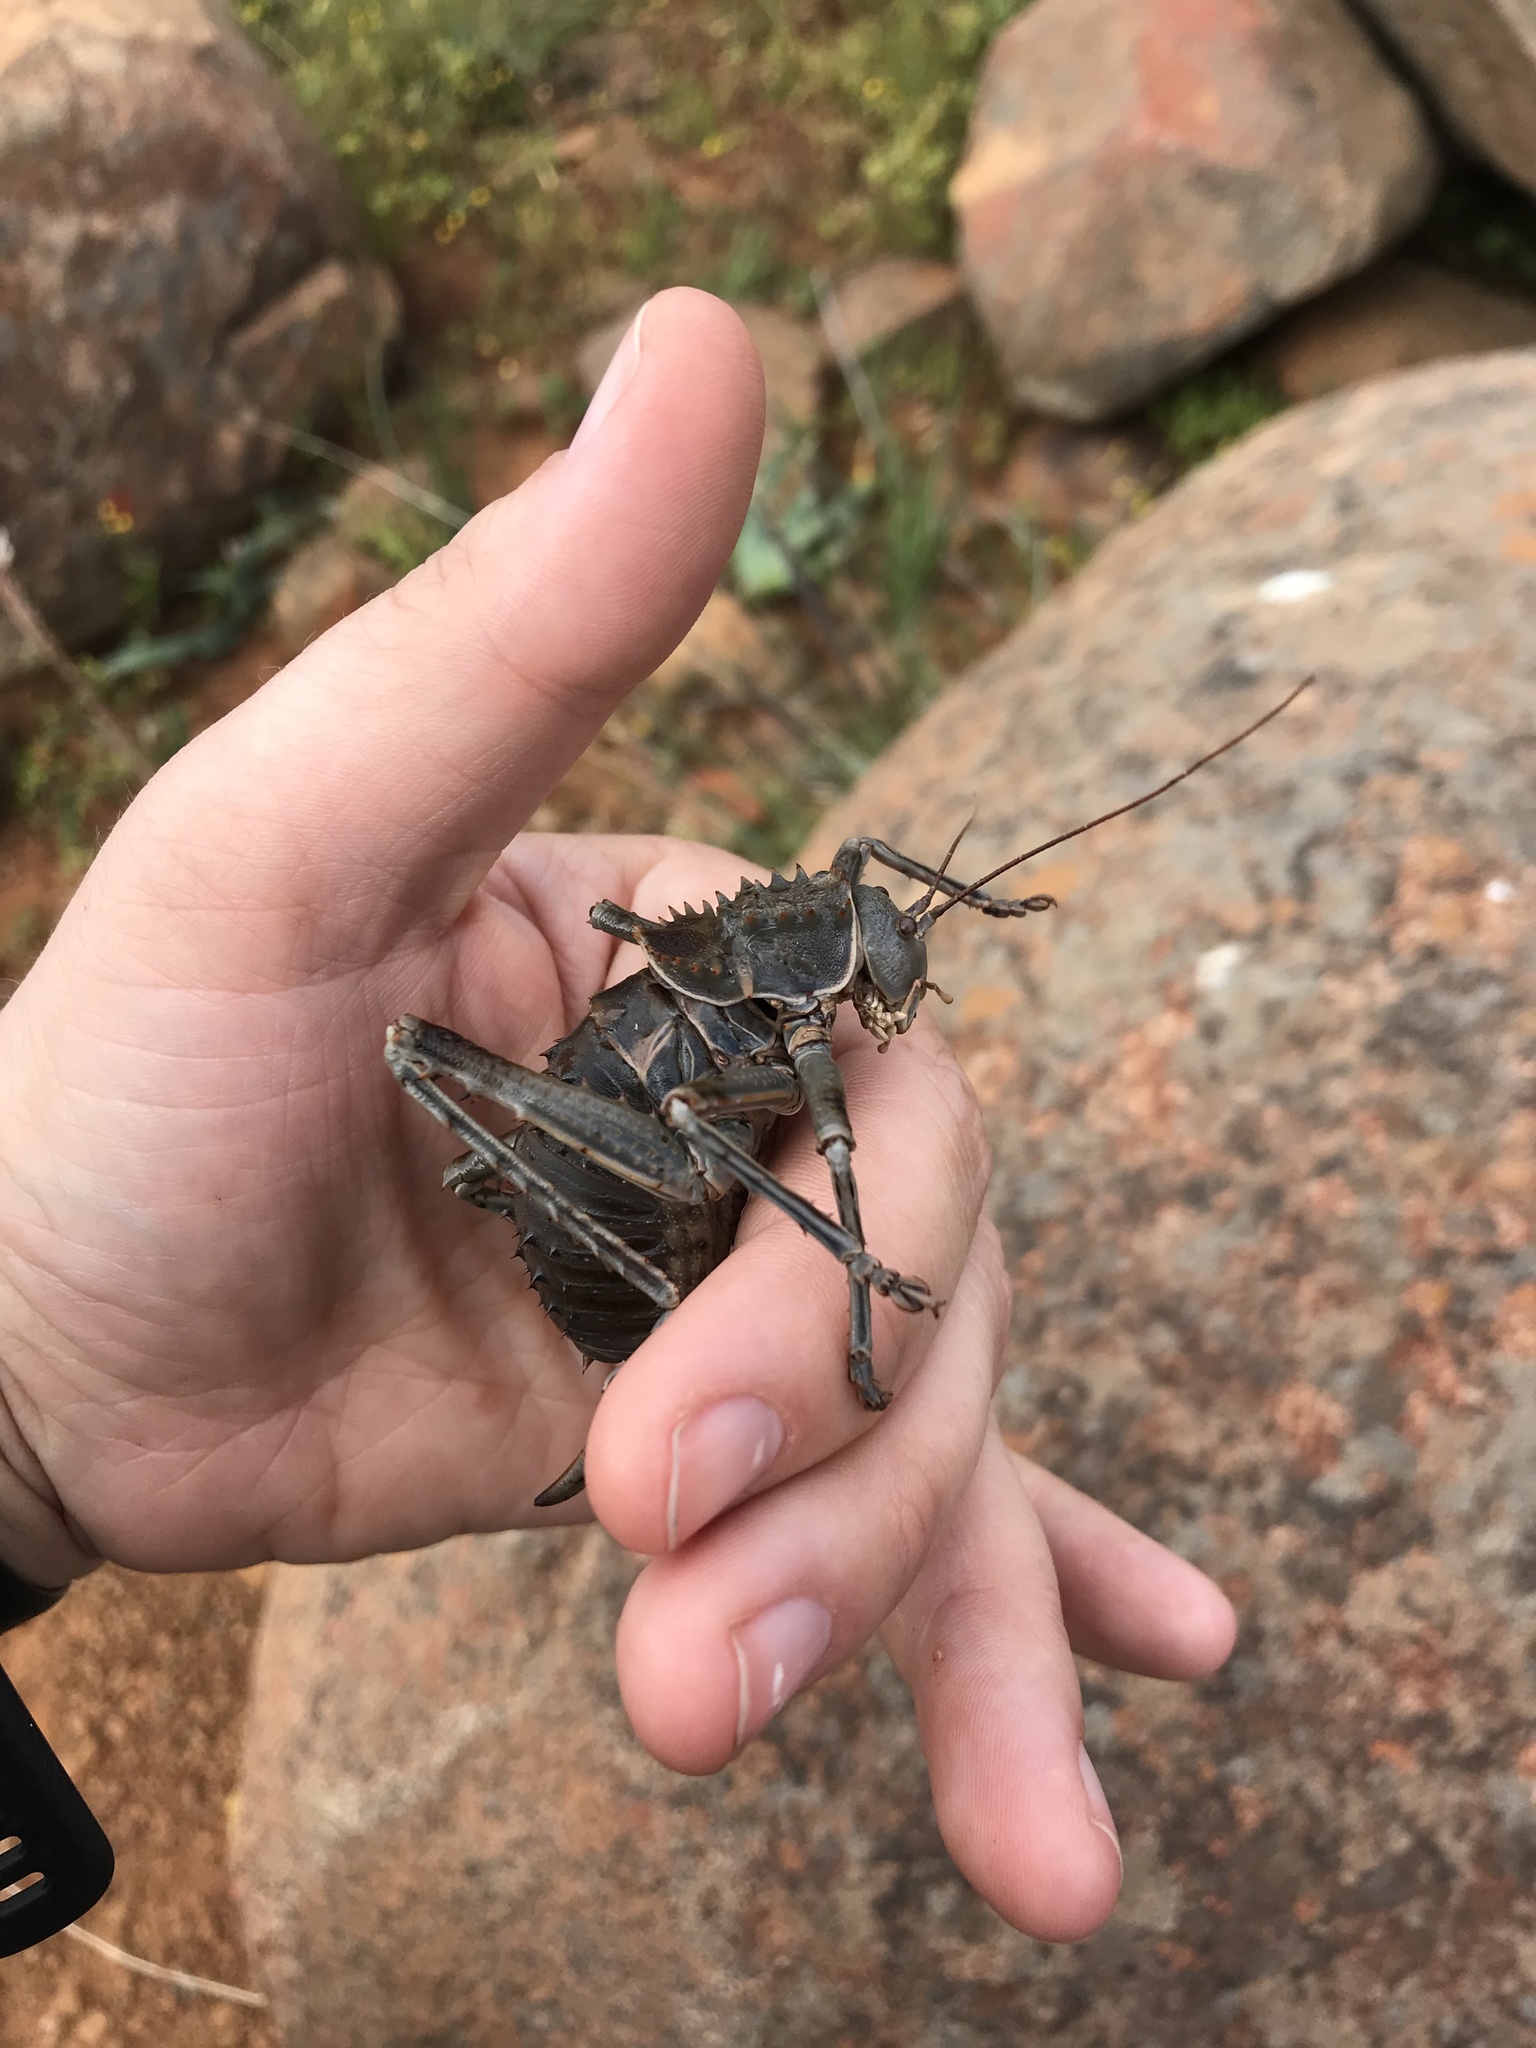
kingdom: Animalia
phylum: Arthropoda
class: Insecta
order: Orthoptera
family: Tettigoniidae
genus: Hetrodes
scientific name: Hetrodes pupus
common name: Koringkriek
